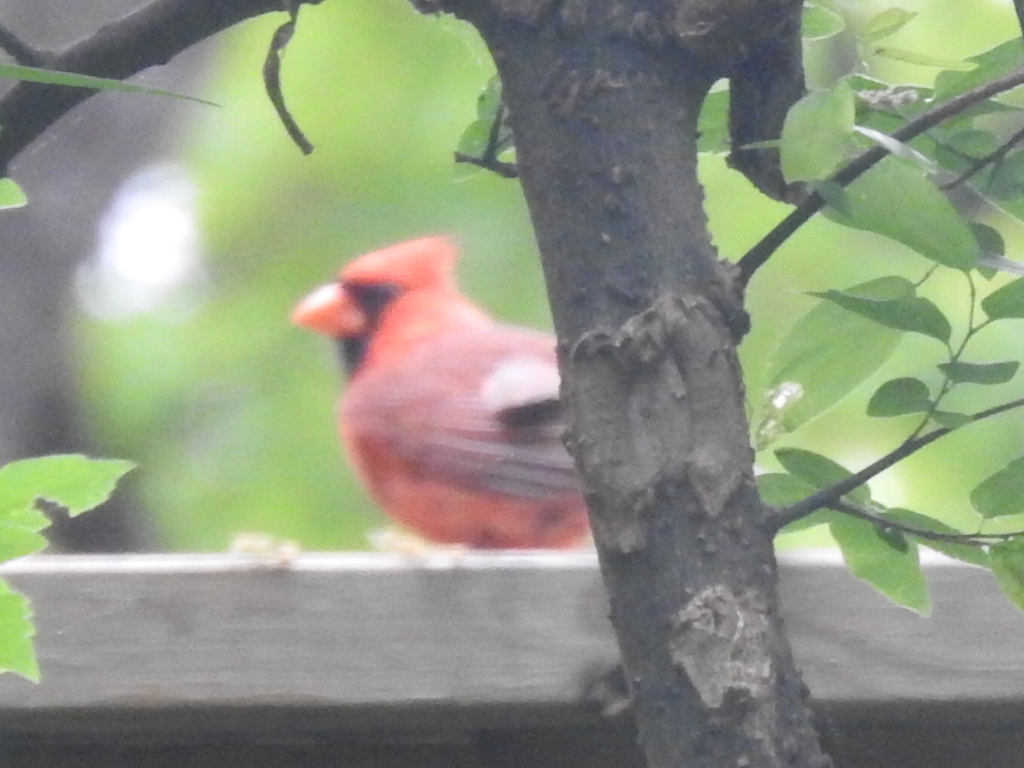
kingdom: Animalia
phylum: Chordata
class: Aves
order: Passeriformes
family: Cardinalidae
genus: Cardinalis
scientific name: Cardinalis cardinalis
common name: Northern cardinal
